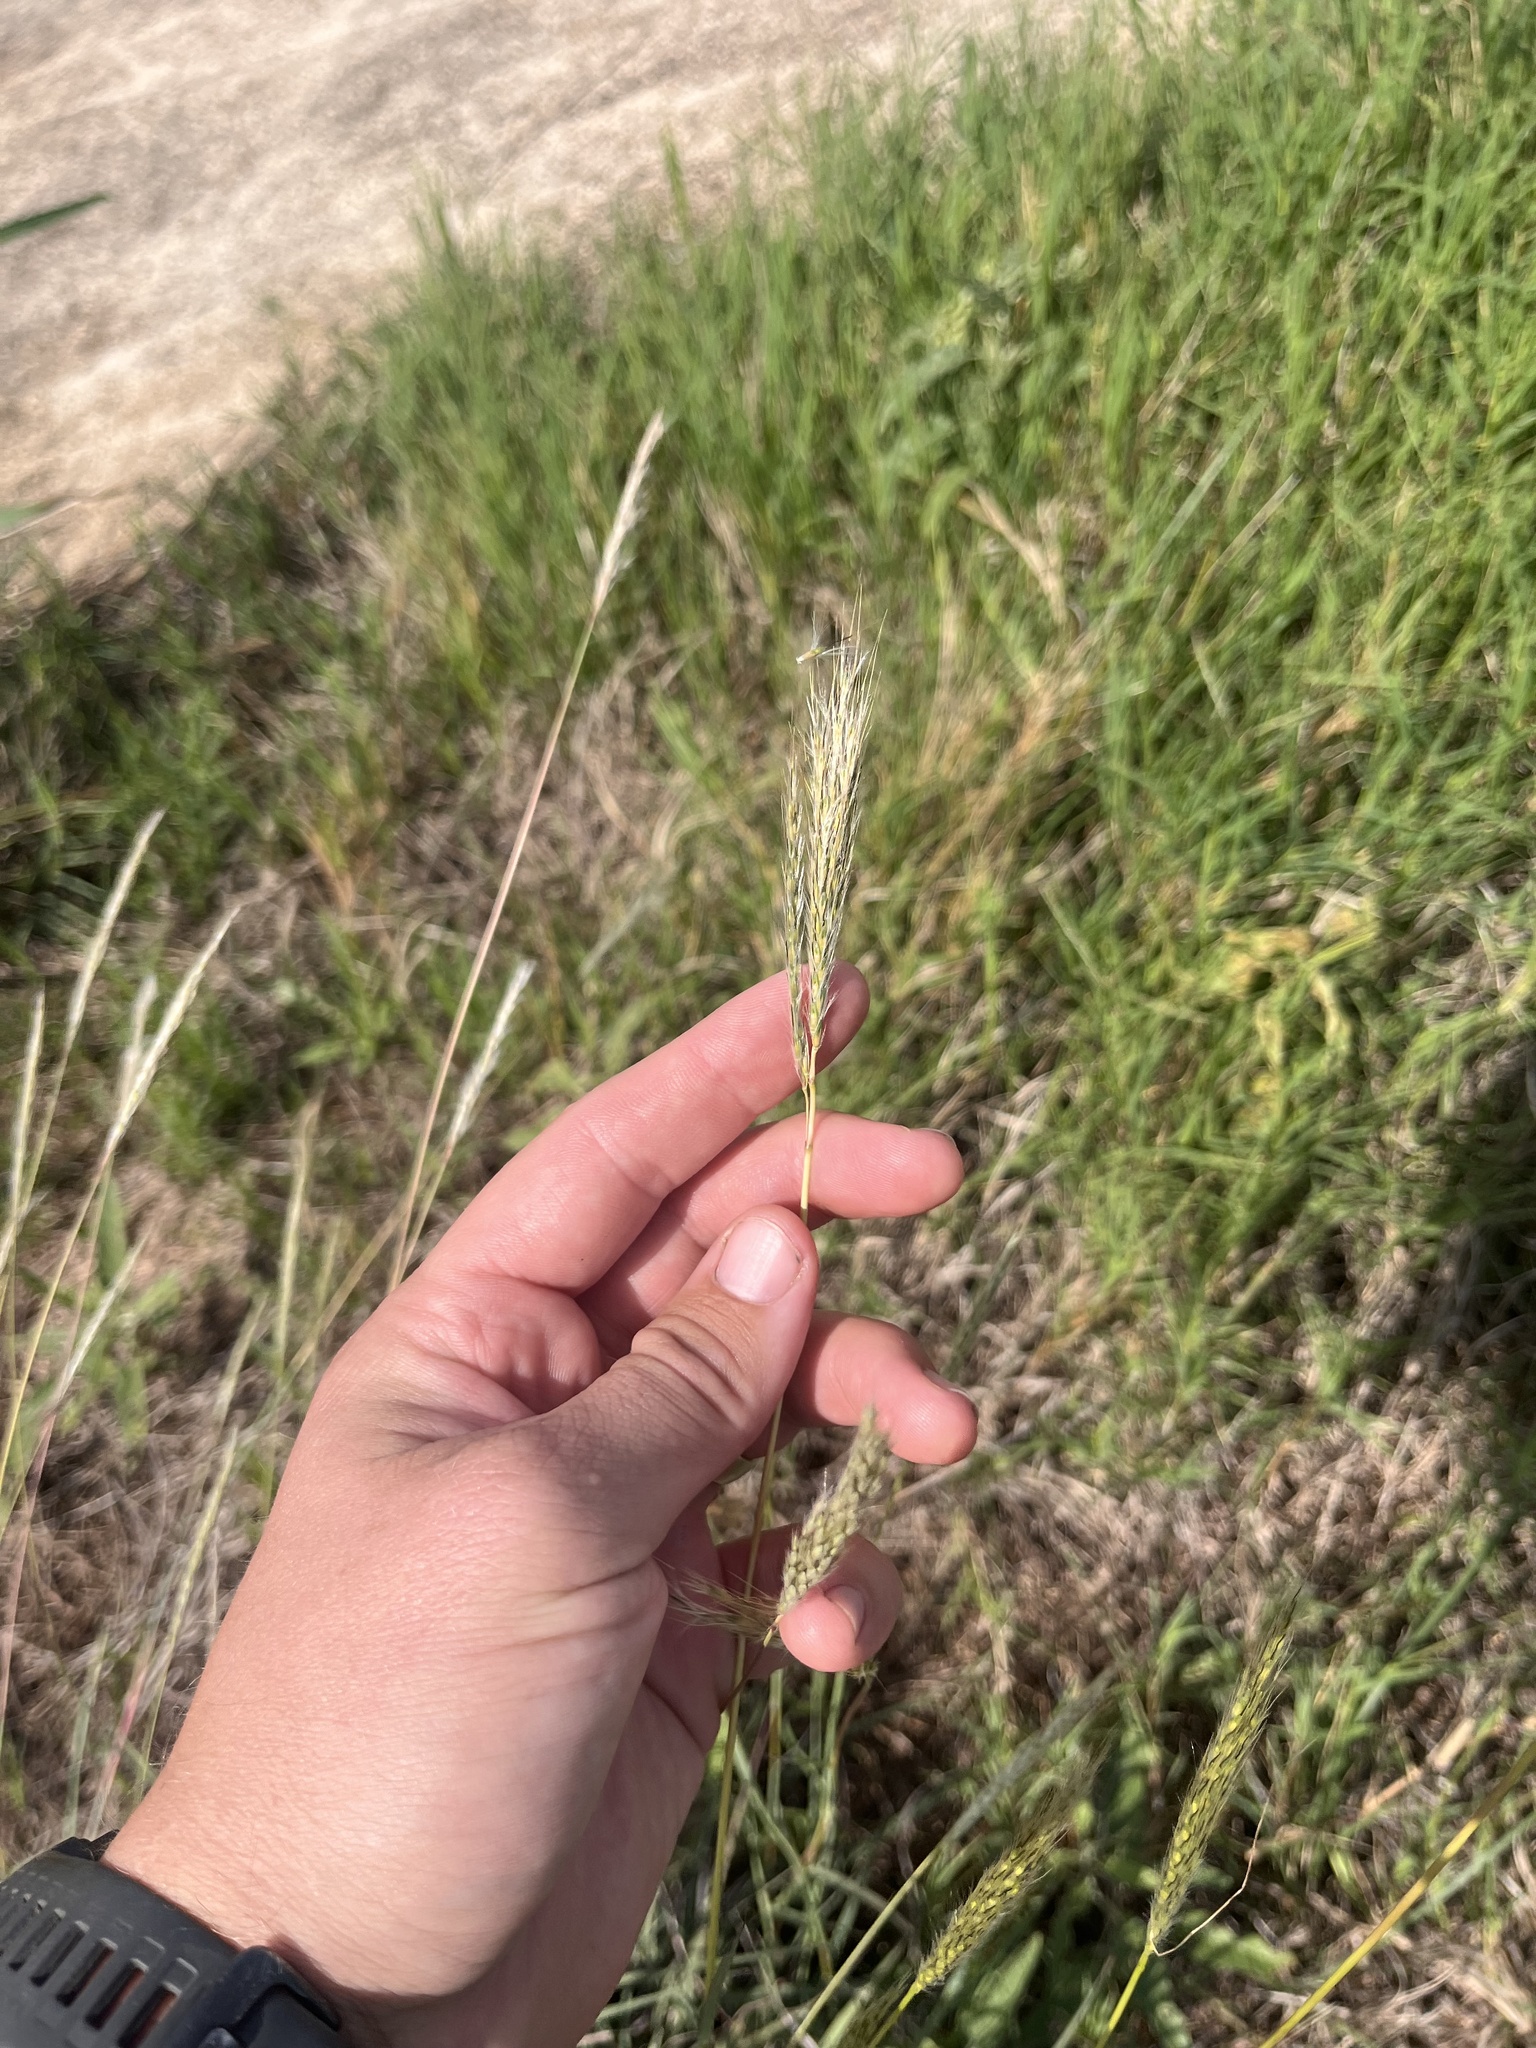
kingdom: Plantae
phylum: Tracheophyta
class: Liliopsida
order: Poales
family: Poaceae
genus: Bothriochloa
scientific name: Bothriochloa hybrida
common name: Hybrid bluestem
